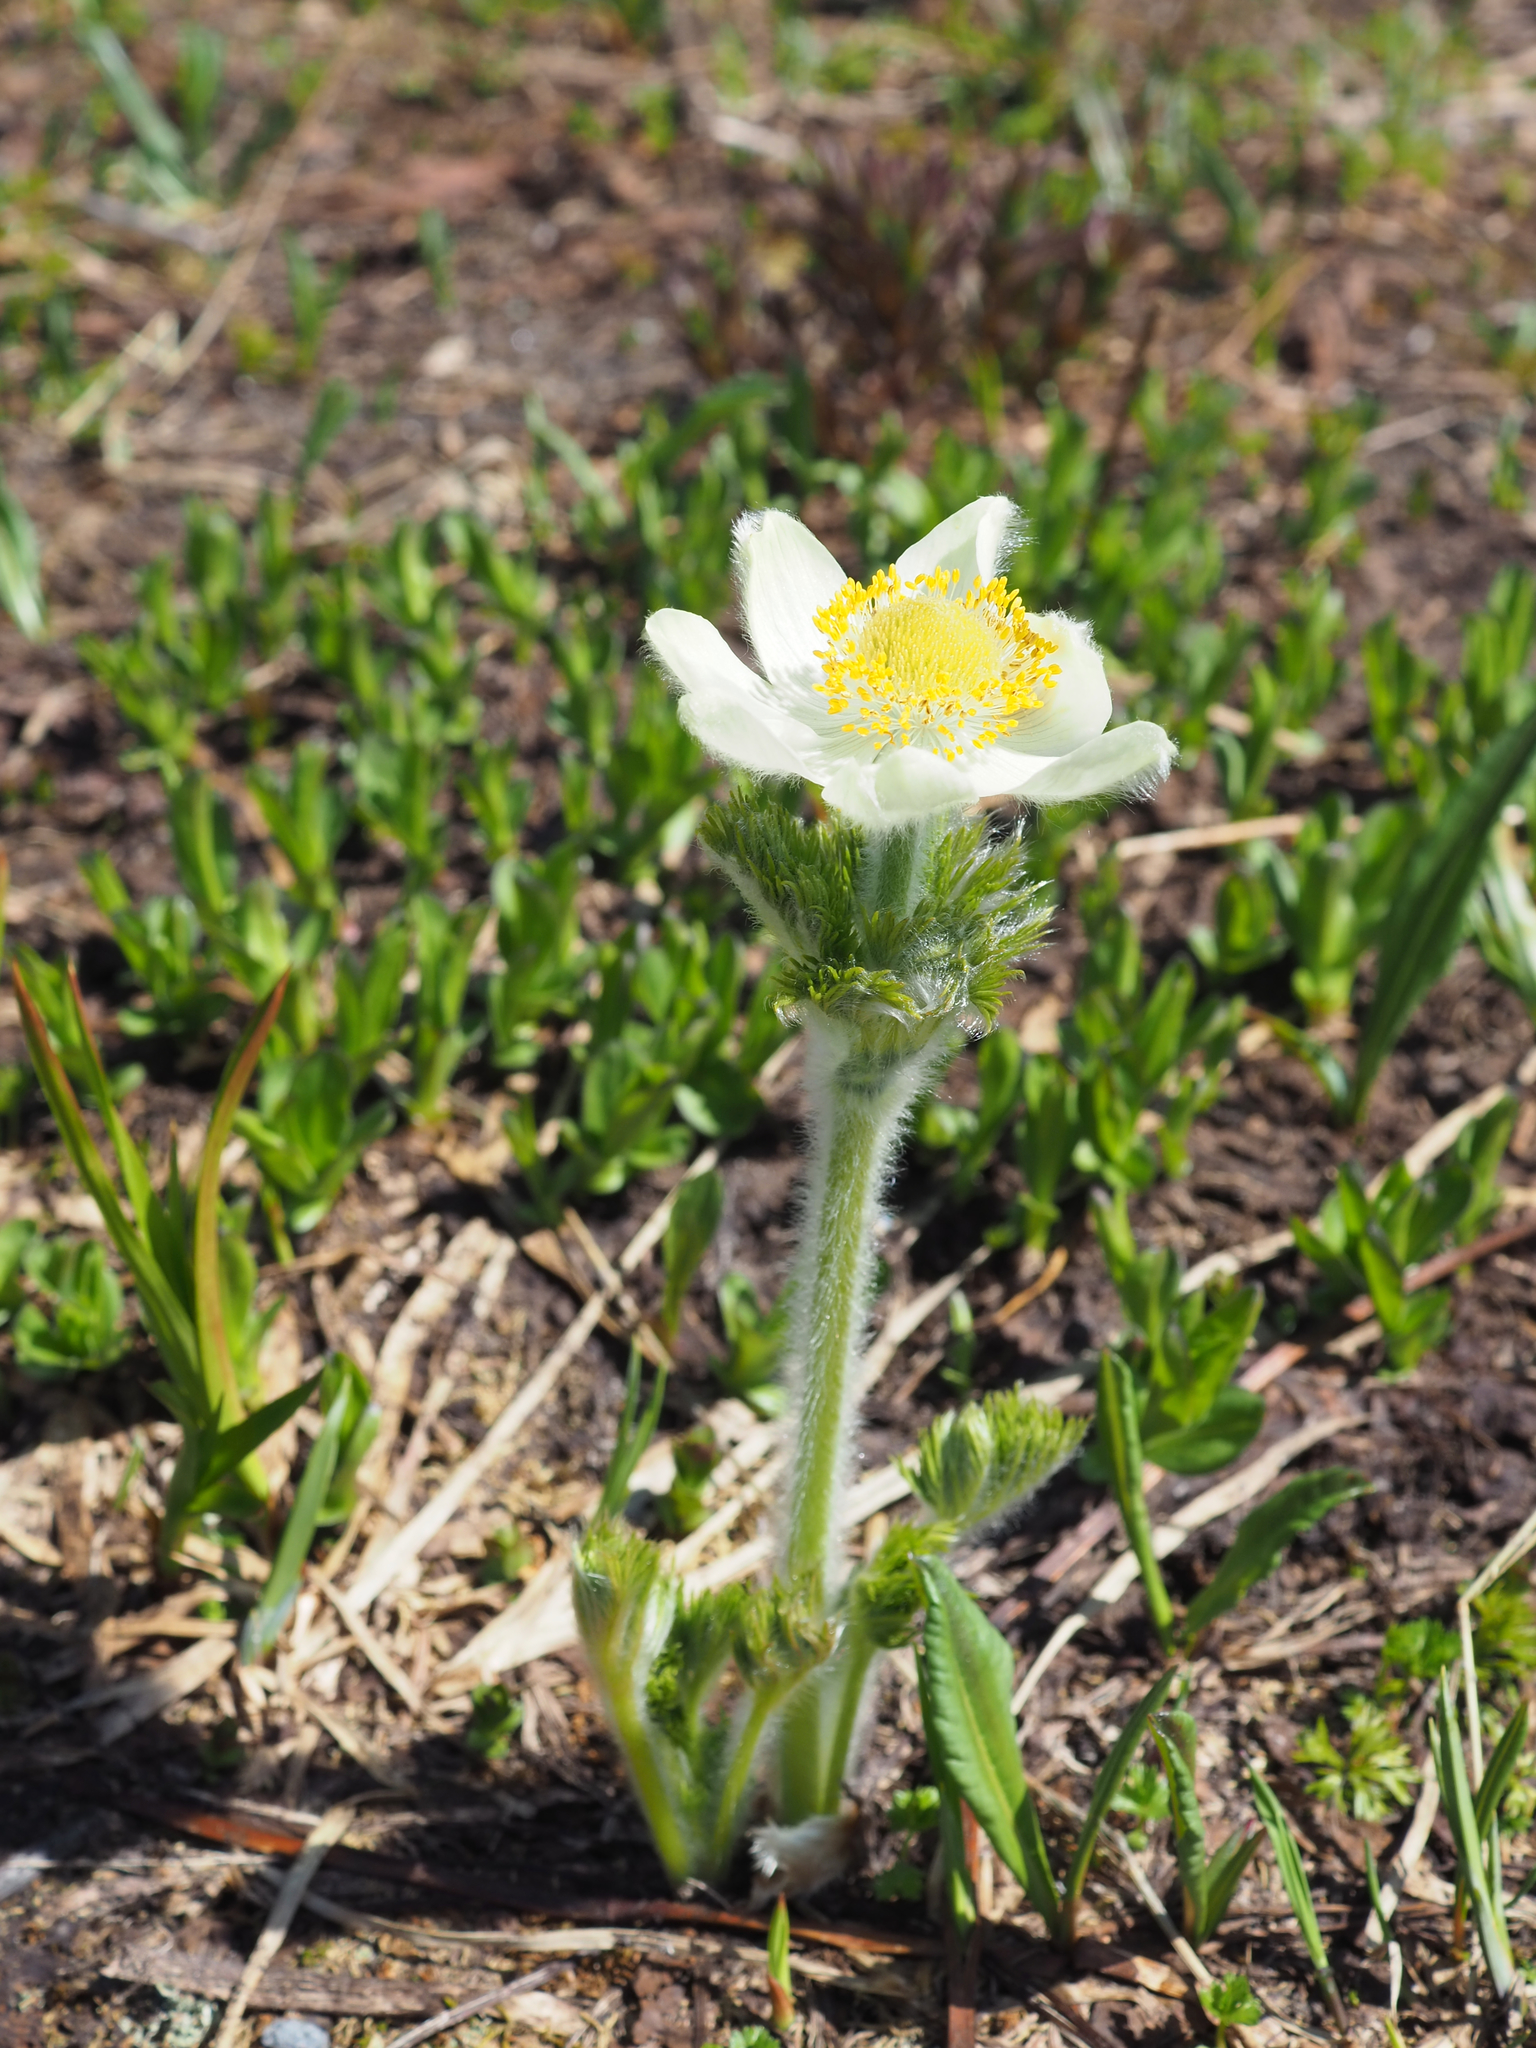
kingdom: Plantae
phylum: Tracheophyta
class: Magnoliopsida
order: Ranunculales
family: Ranunculaceae
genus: Pulsatilla
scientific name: Pulsatilla occidentalis
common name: Mountain pasqueflower
